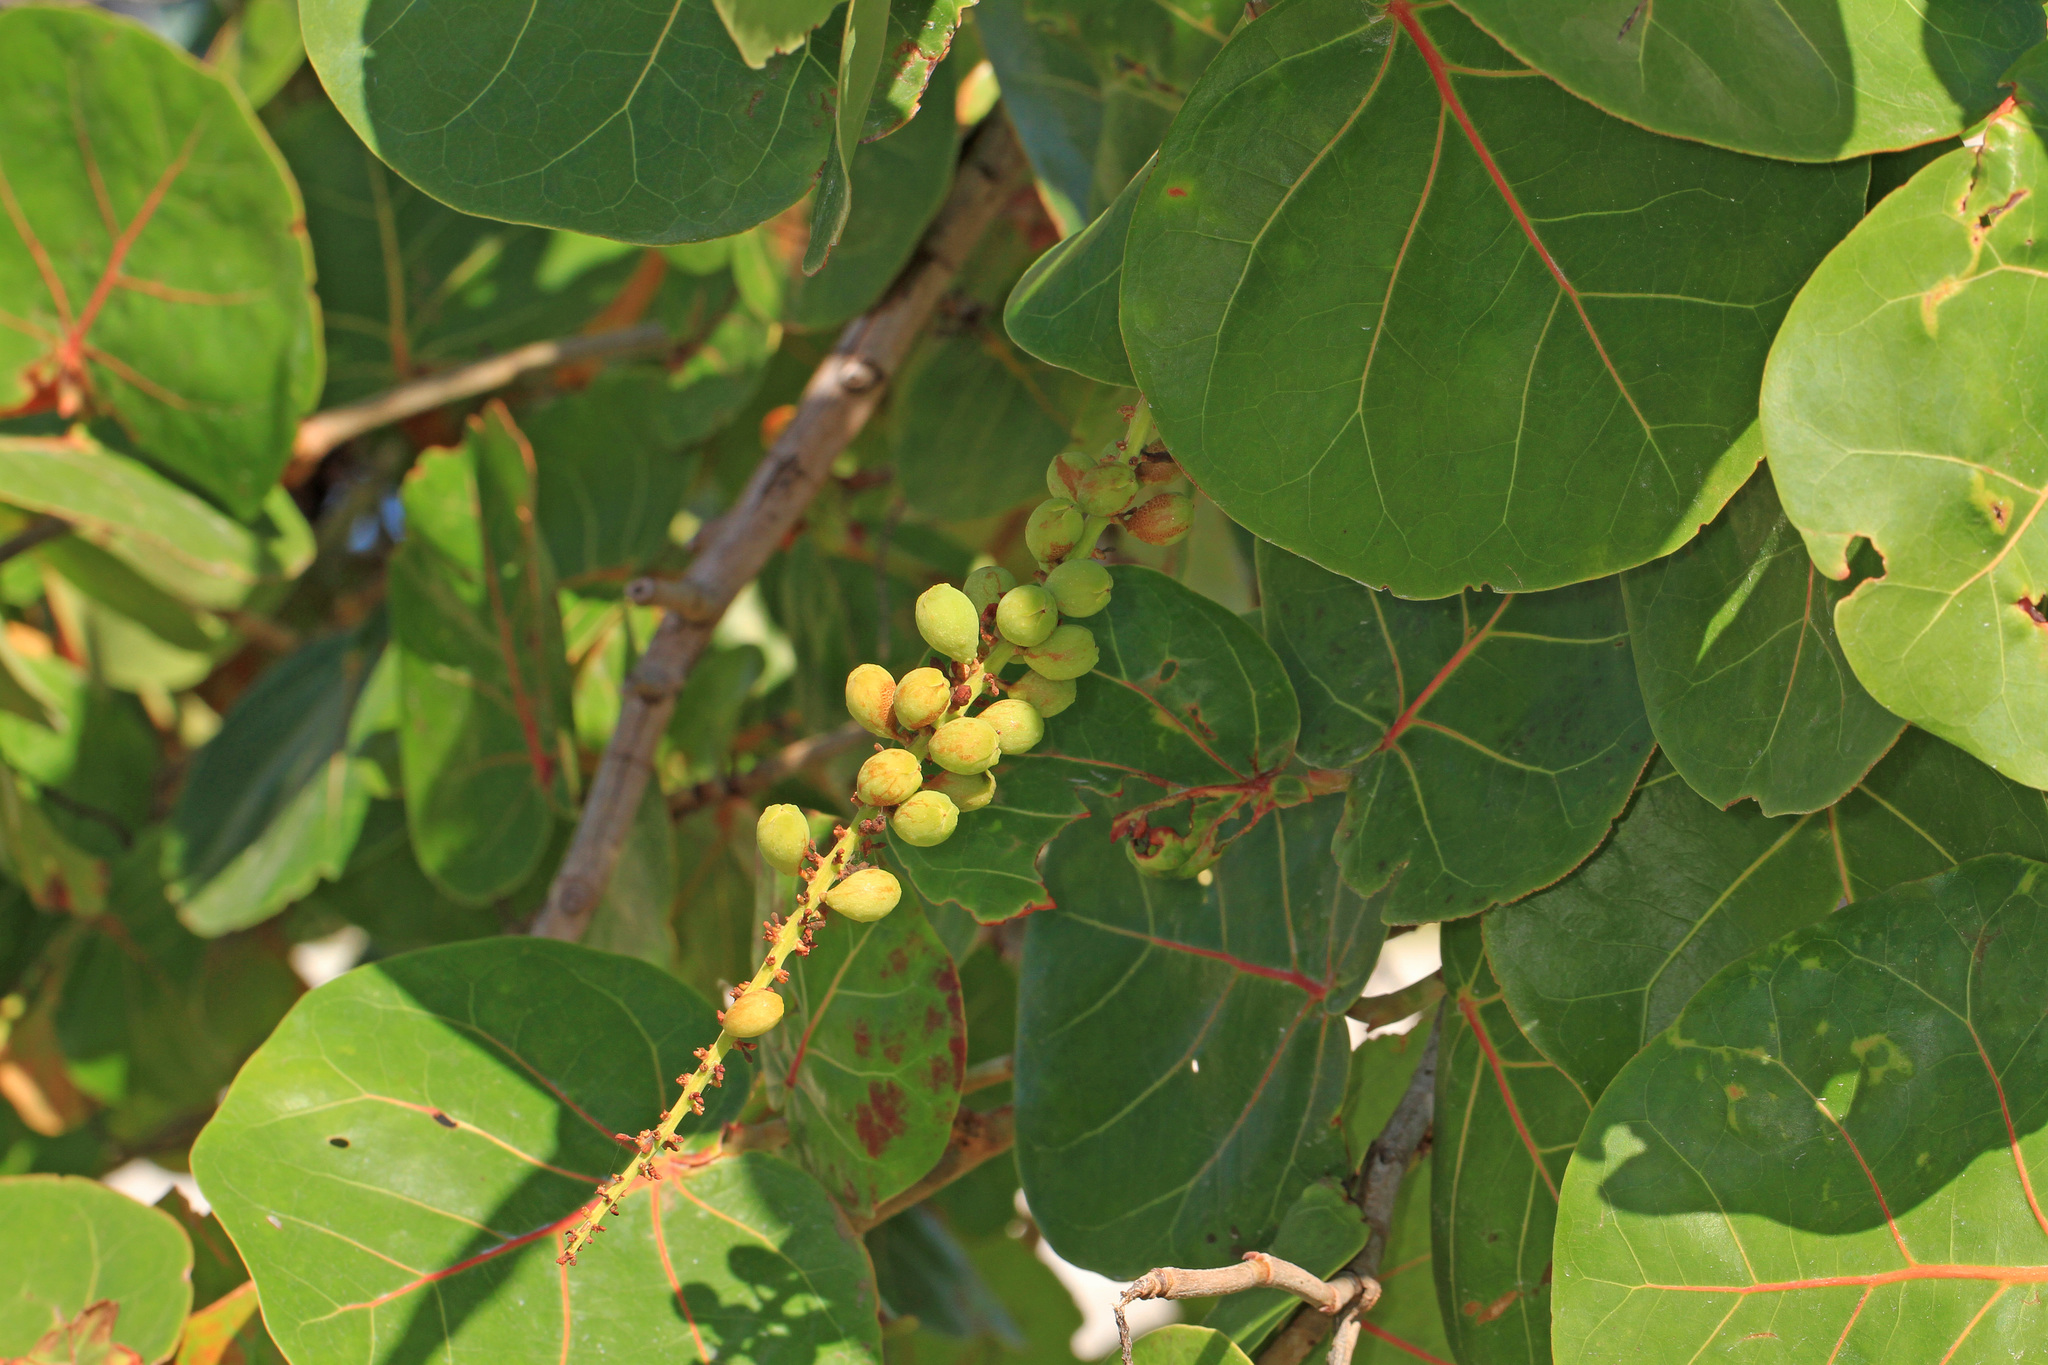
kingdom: Plantae
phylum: Tracheophyta
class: Magnoliopsida
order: Caryophyllales
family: Polygonaceae
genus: Coccoloba
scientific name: Coccoloba uvifera
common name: Seagrape
